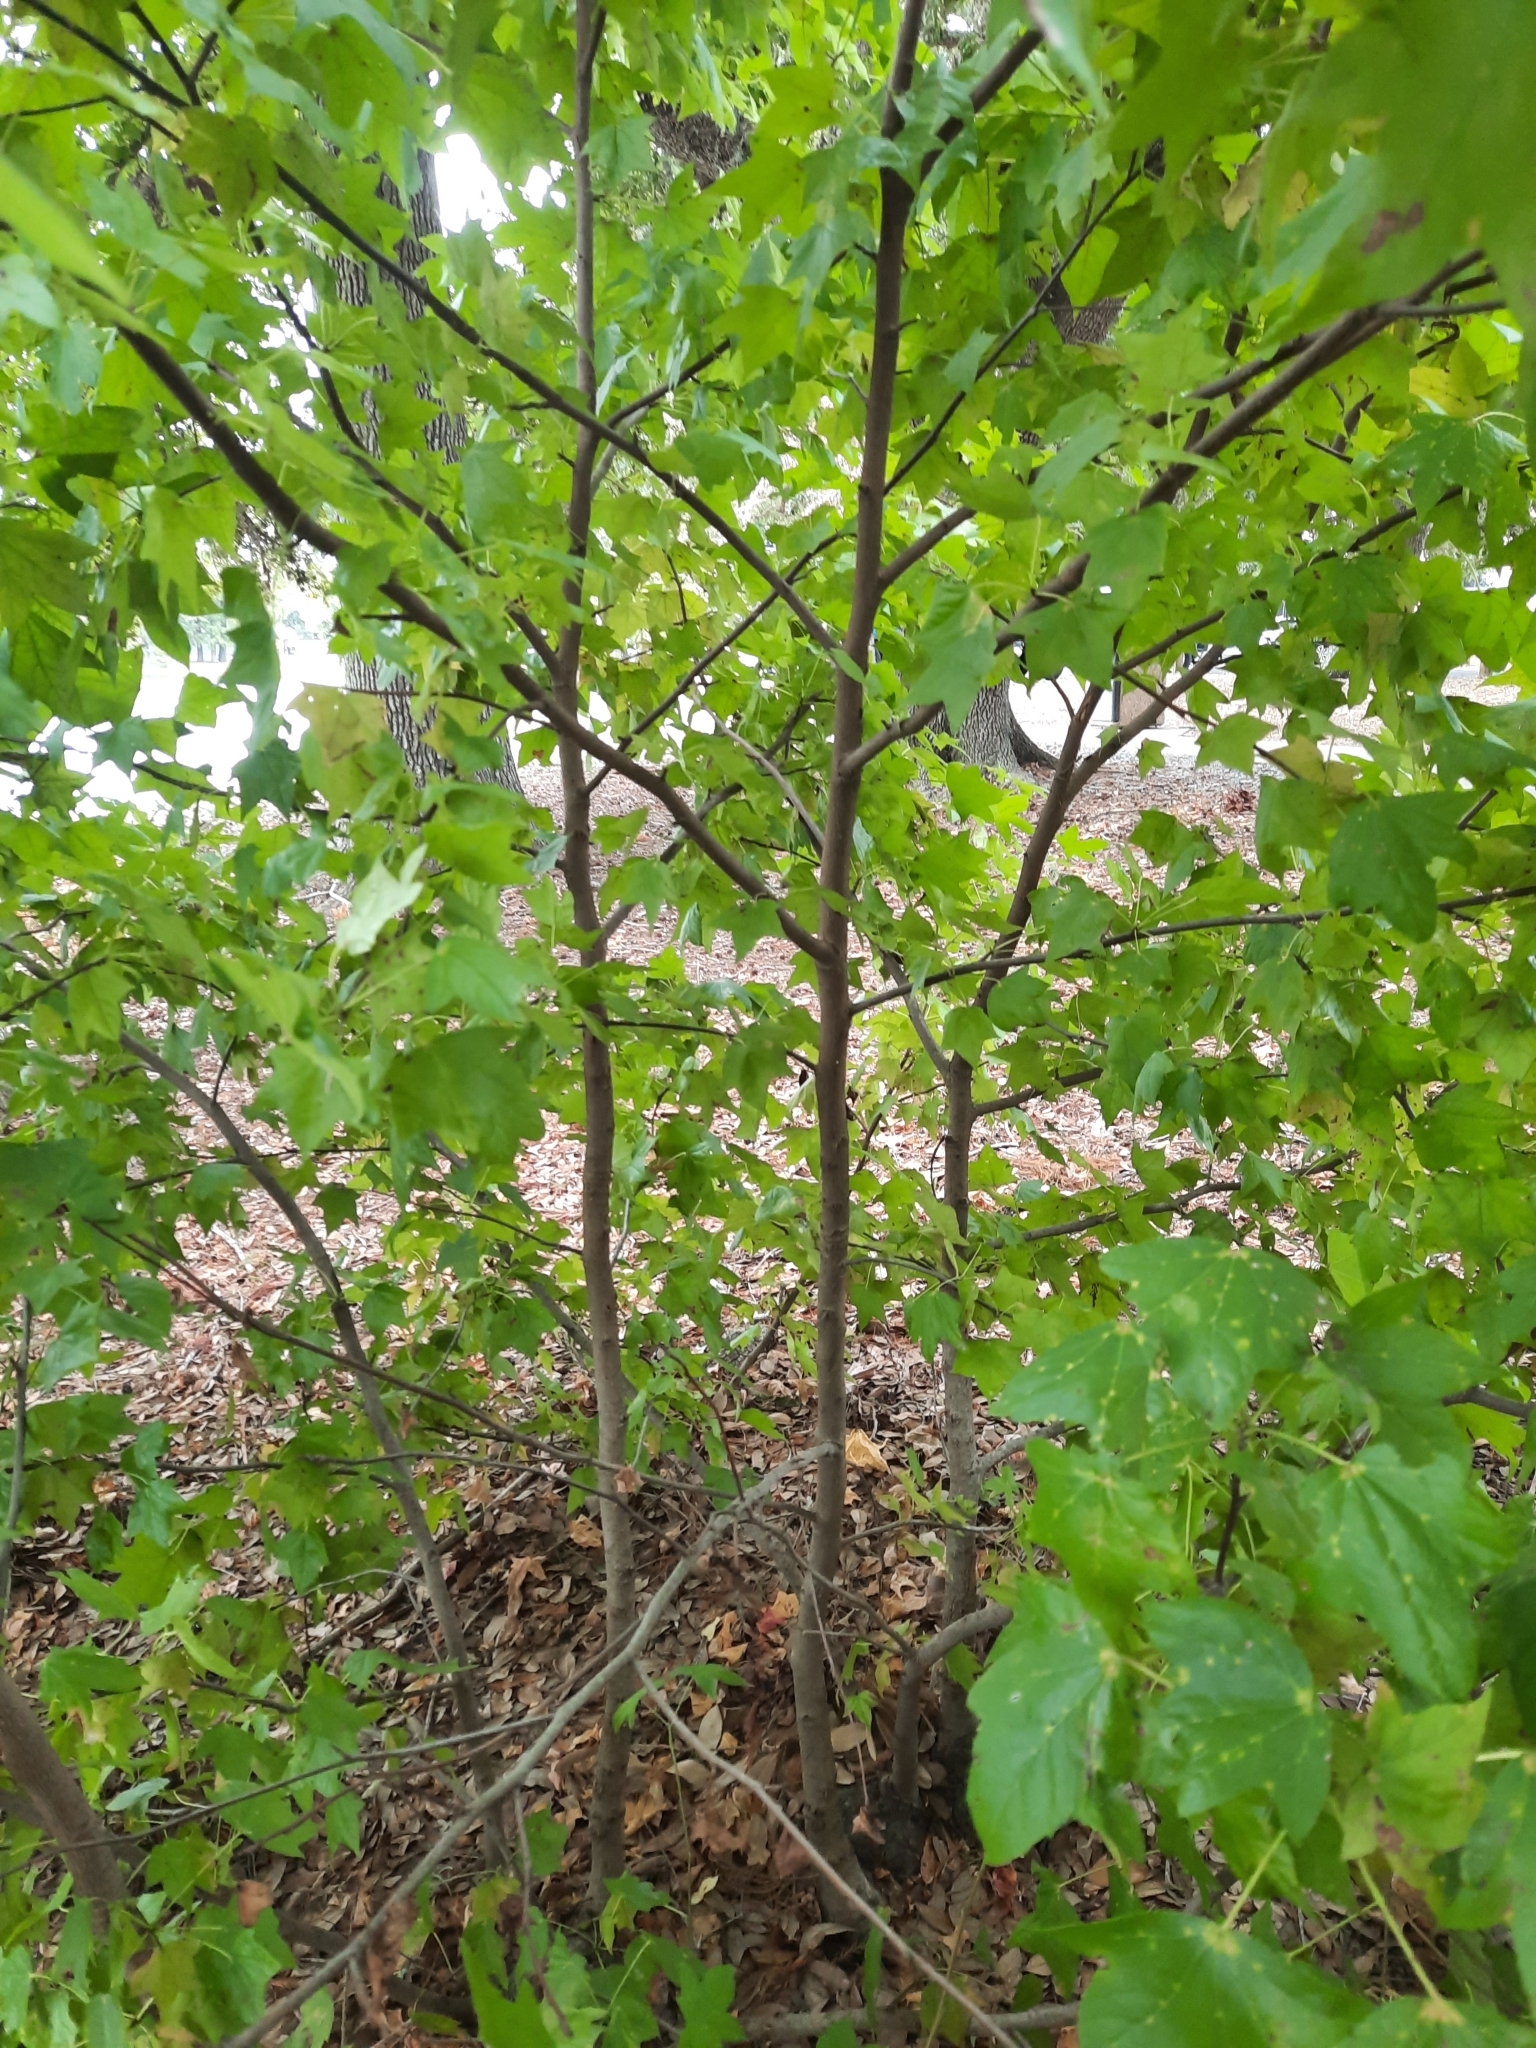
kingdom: Plantae
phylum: Tracheophyta
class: Magnoliopsida
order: Saxifragales
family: Altingiaceae
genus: Liquidambar
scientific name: Liquidambar styraciflua
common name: Sweet gum
